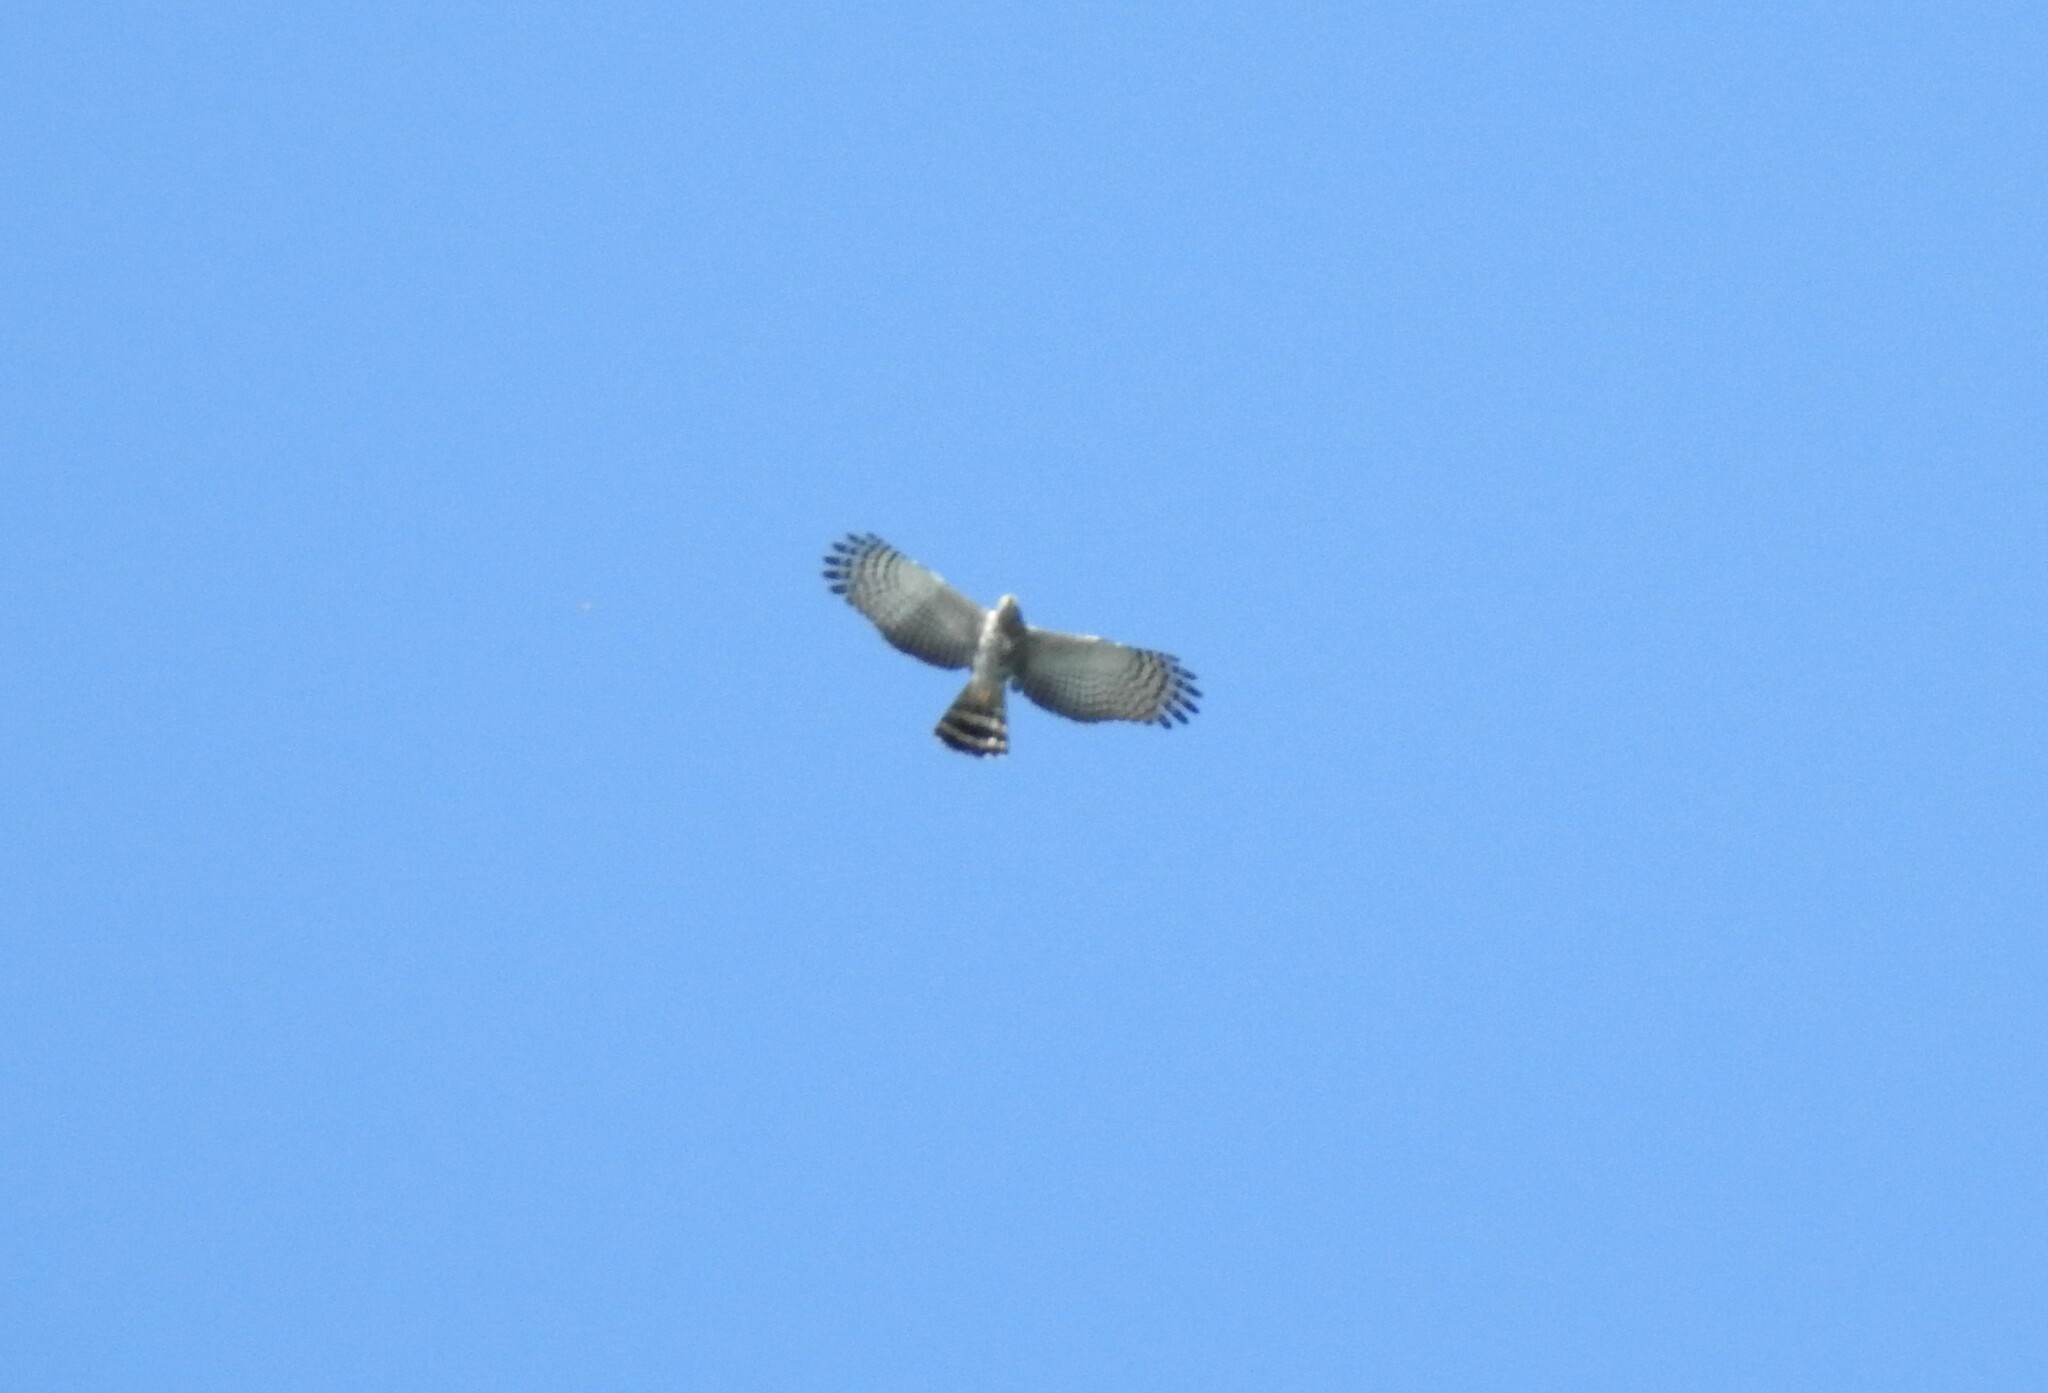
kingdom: Animalia
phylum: Chordata
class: Aves
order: Accipitriformes
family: Accipitridae
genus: Chondrohierax
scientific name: Chondrohierax uncinatus
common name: Hook-billed kite
